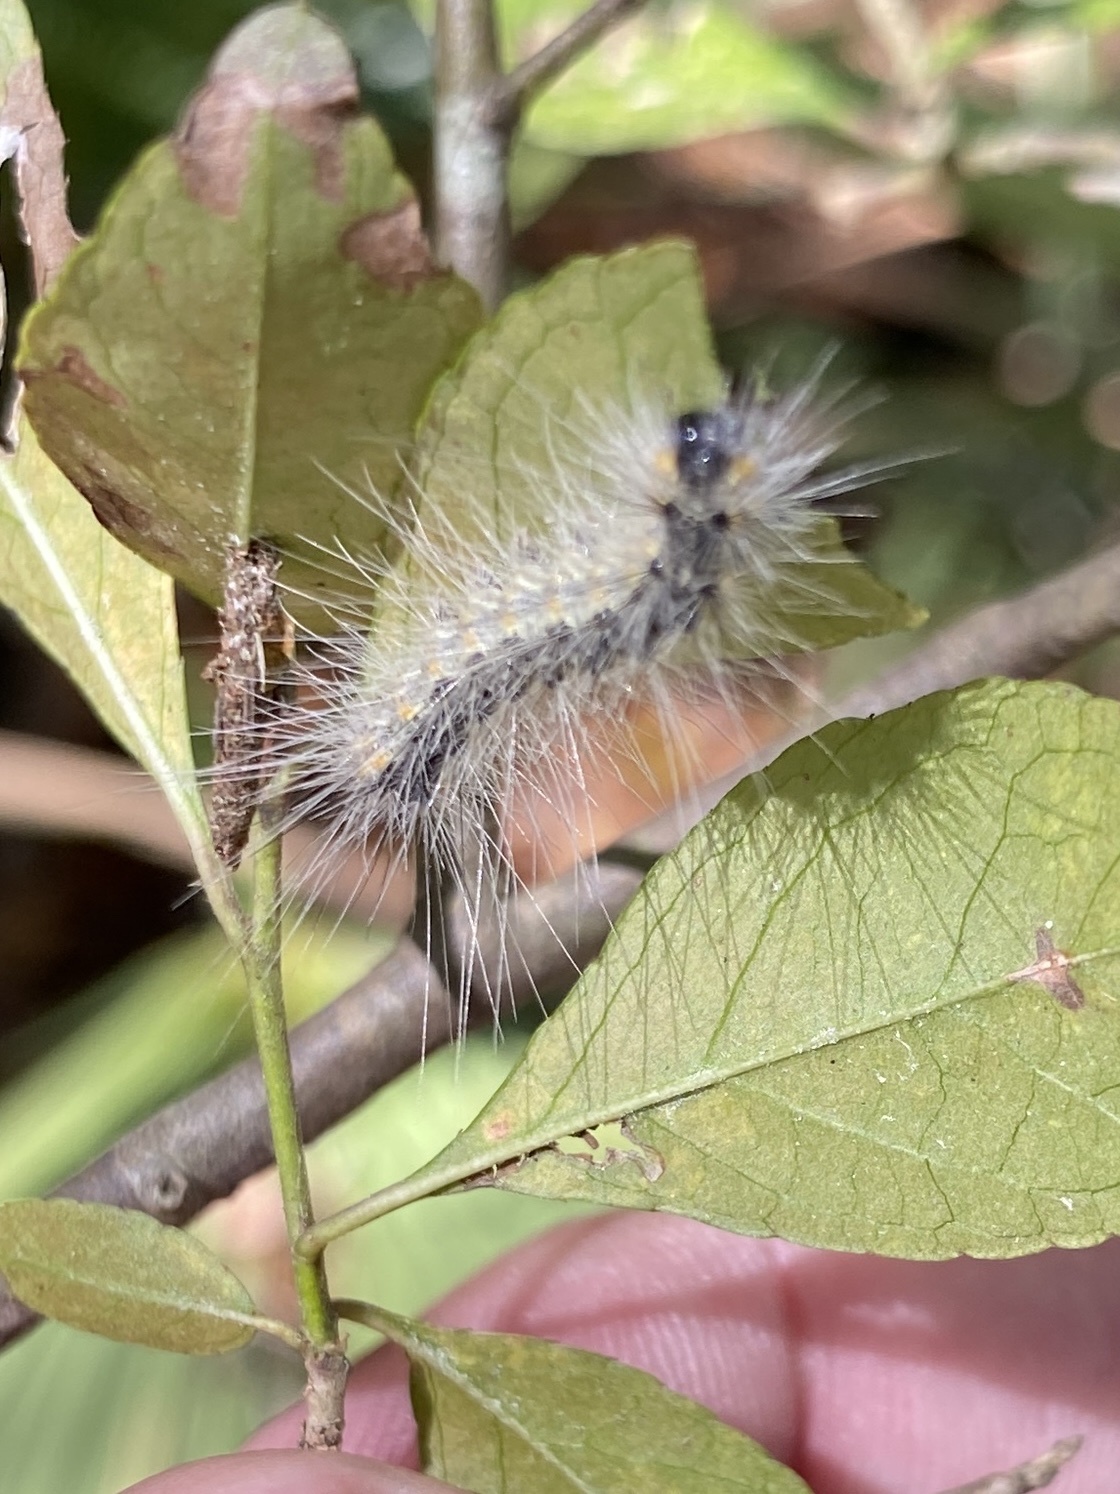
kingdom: Animalia
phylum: Arthropoda
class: Insecta
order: Lepidoptera
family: Erebidae
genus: Hyphantria
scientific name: Hyphantria cunea
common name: American white moth
